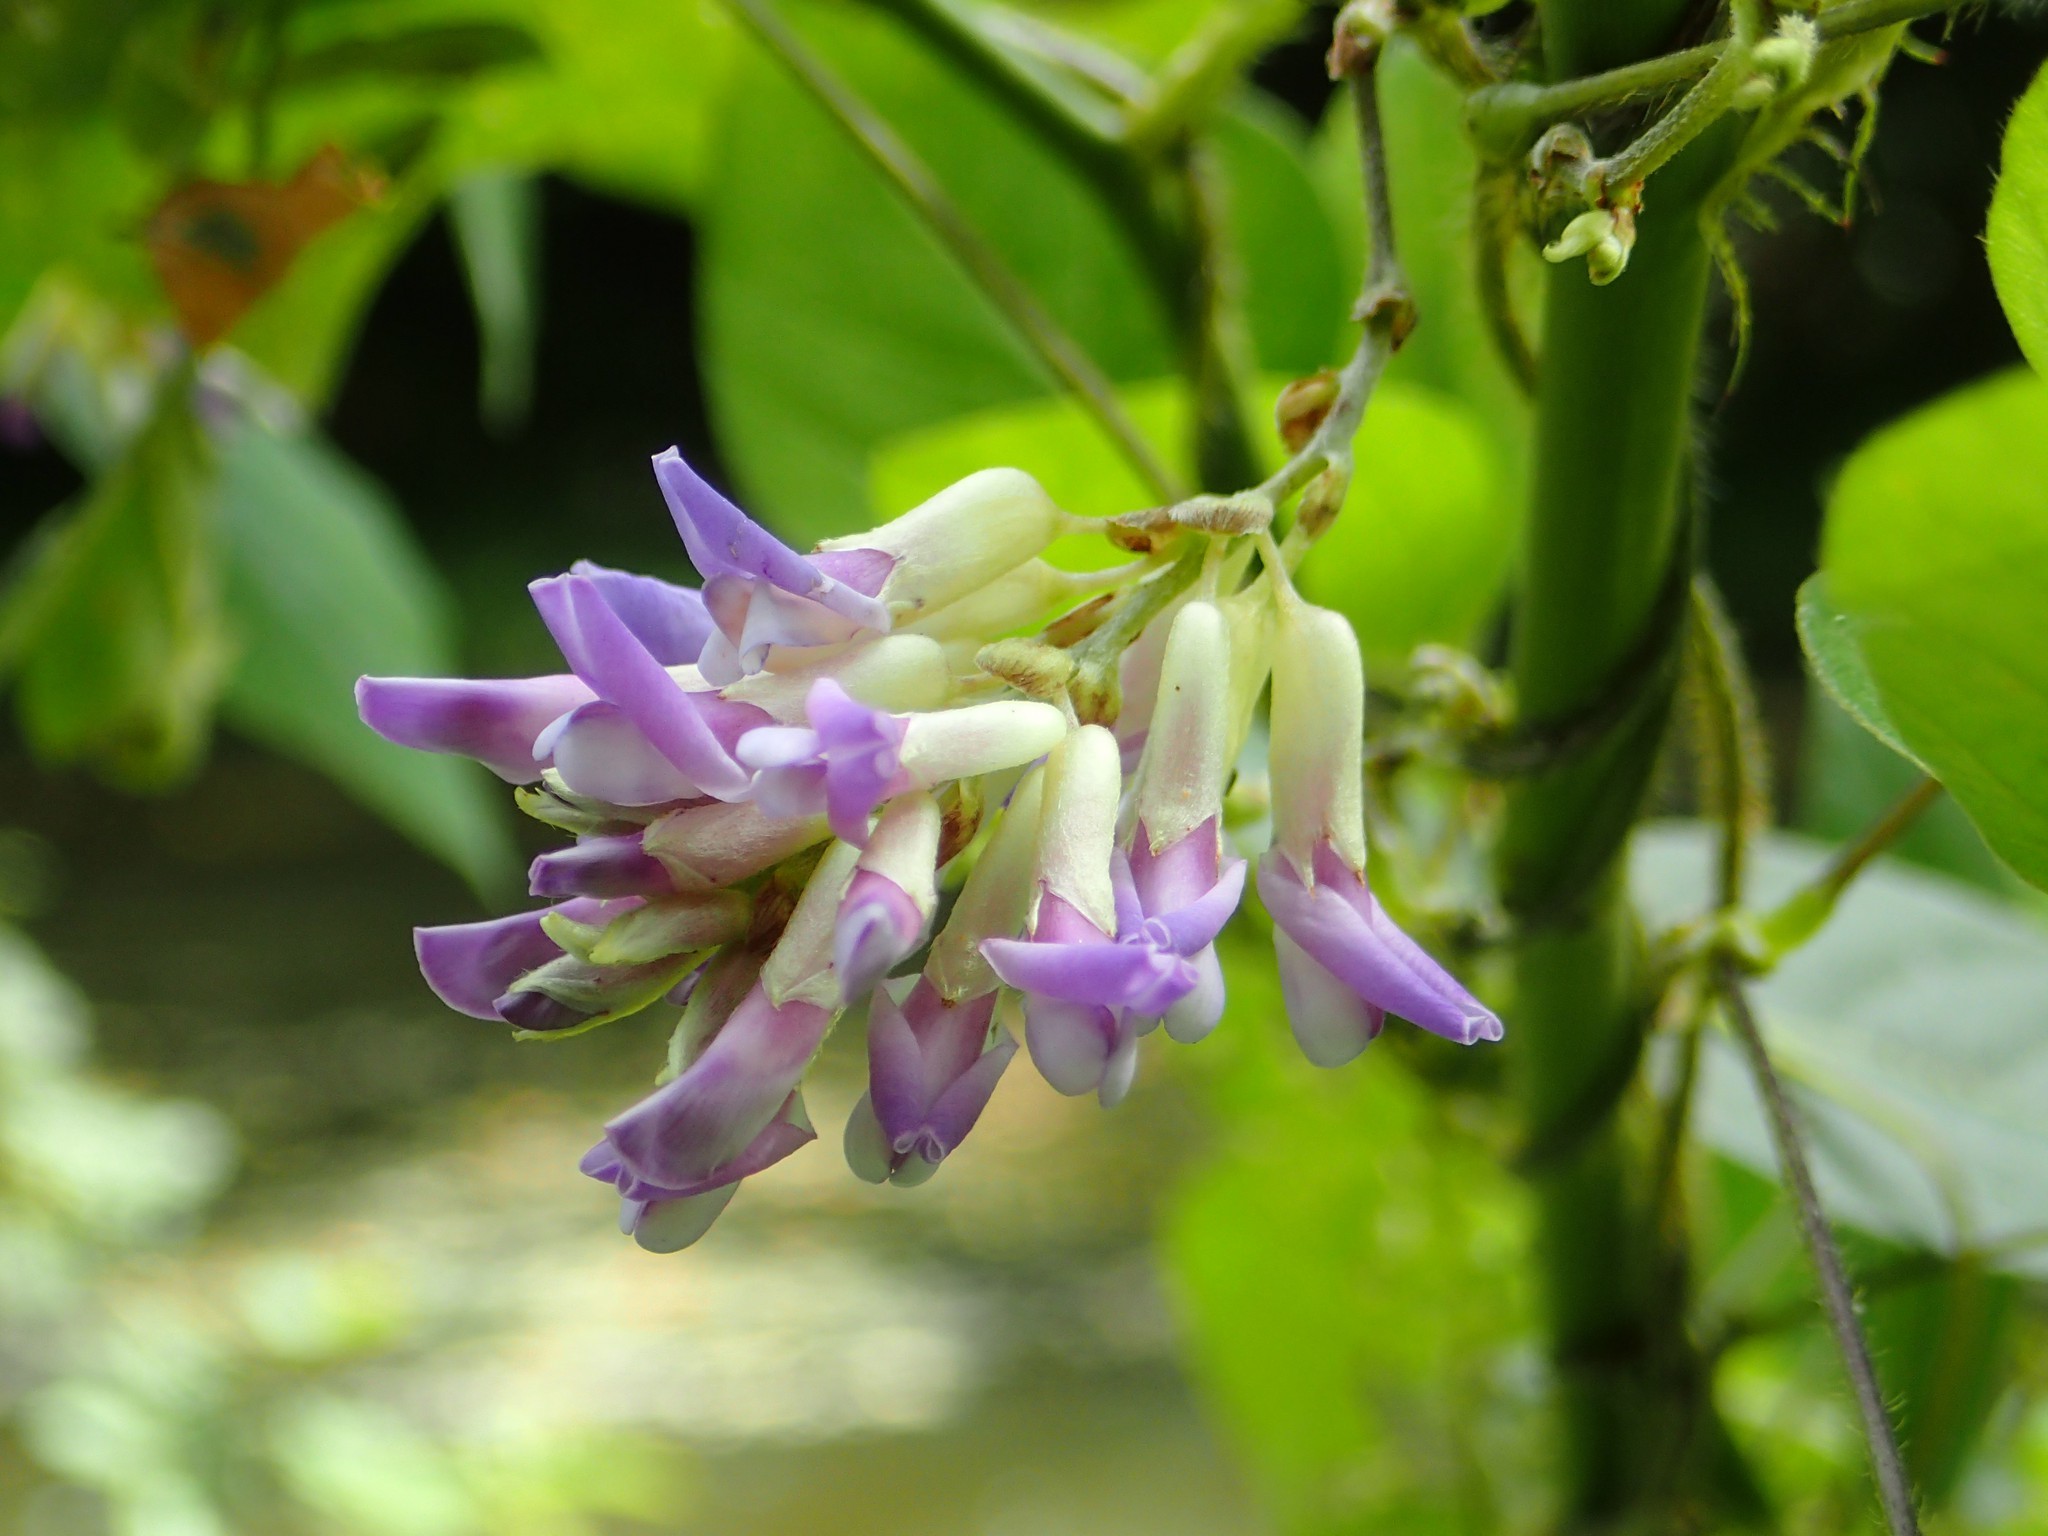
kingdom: Plantae
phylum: Tracheophyta
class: Magnoliopsida
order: Fabales
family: Fabaceae
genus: Amphicarpaea
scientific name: Amphicarpaea bracteata
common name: American hog peanut
